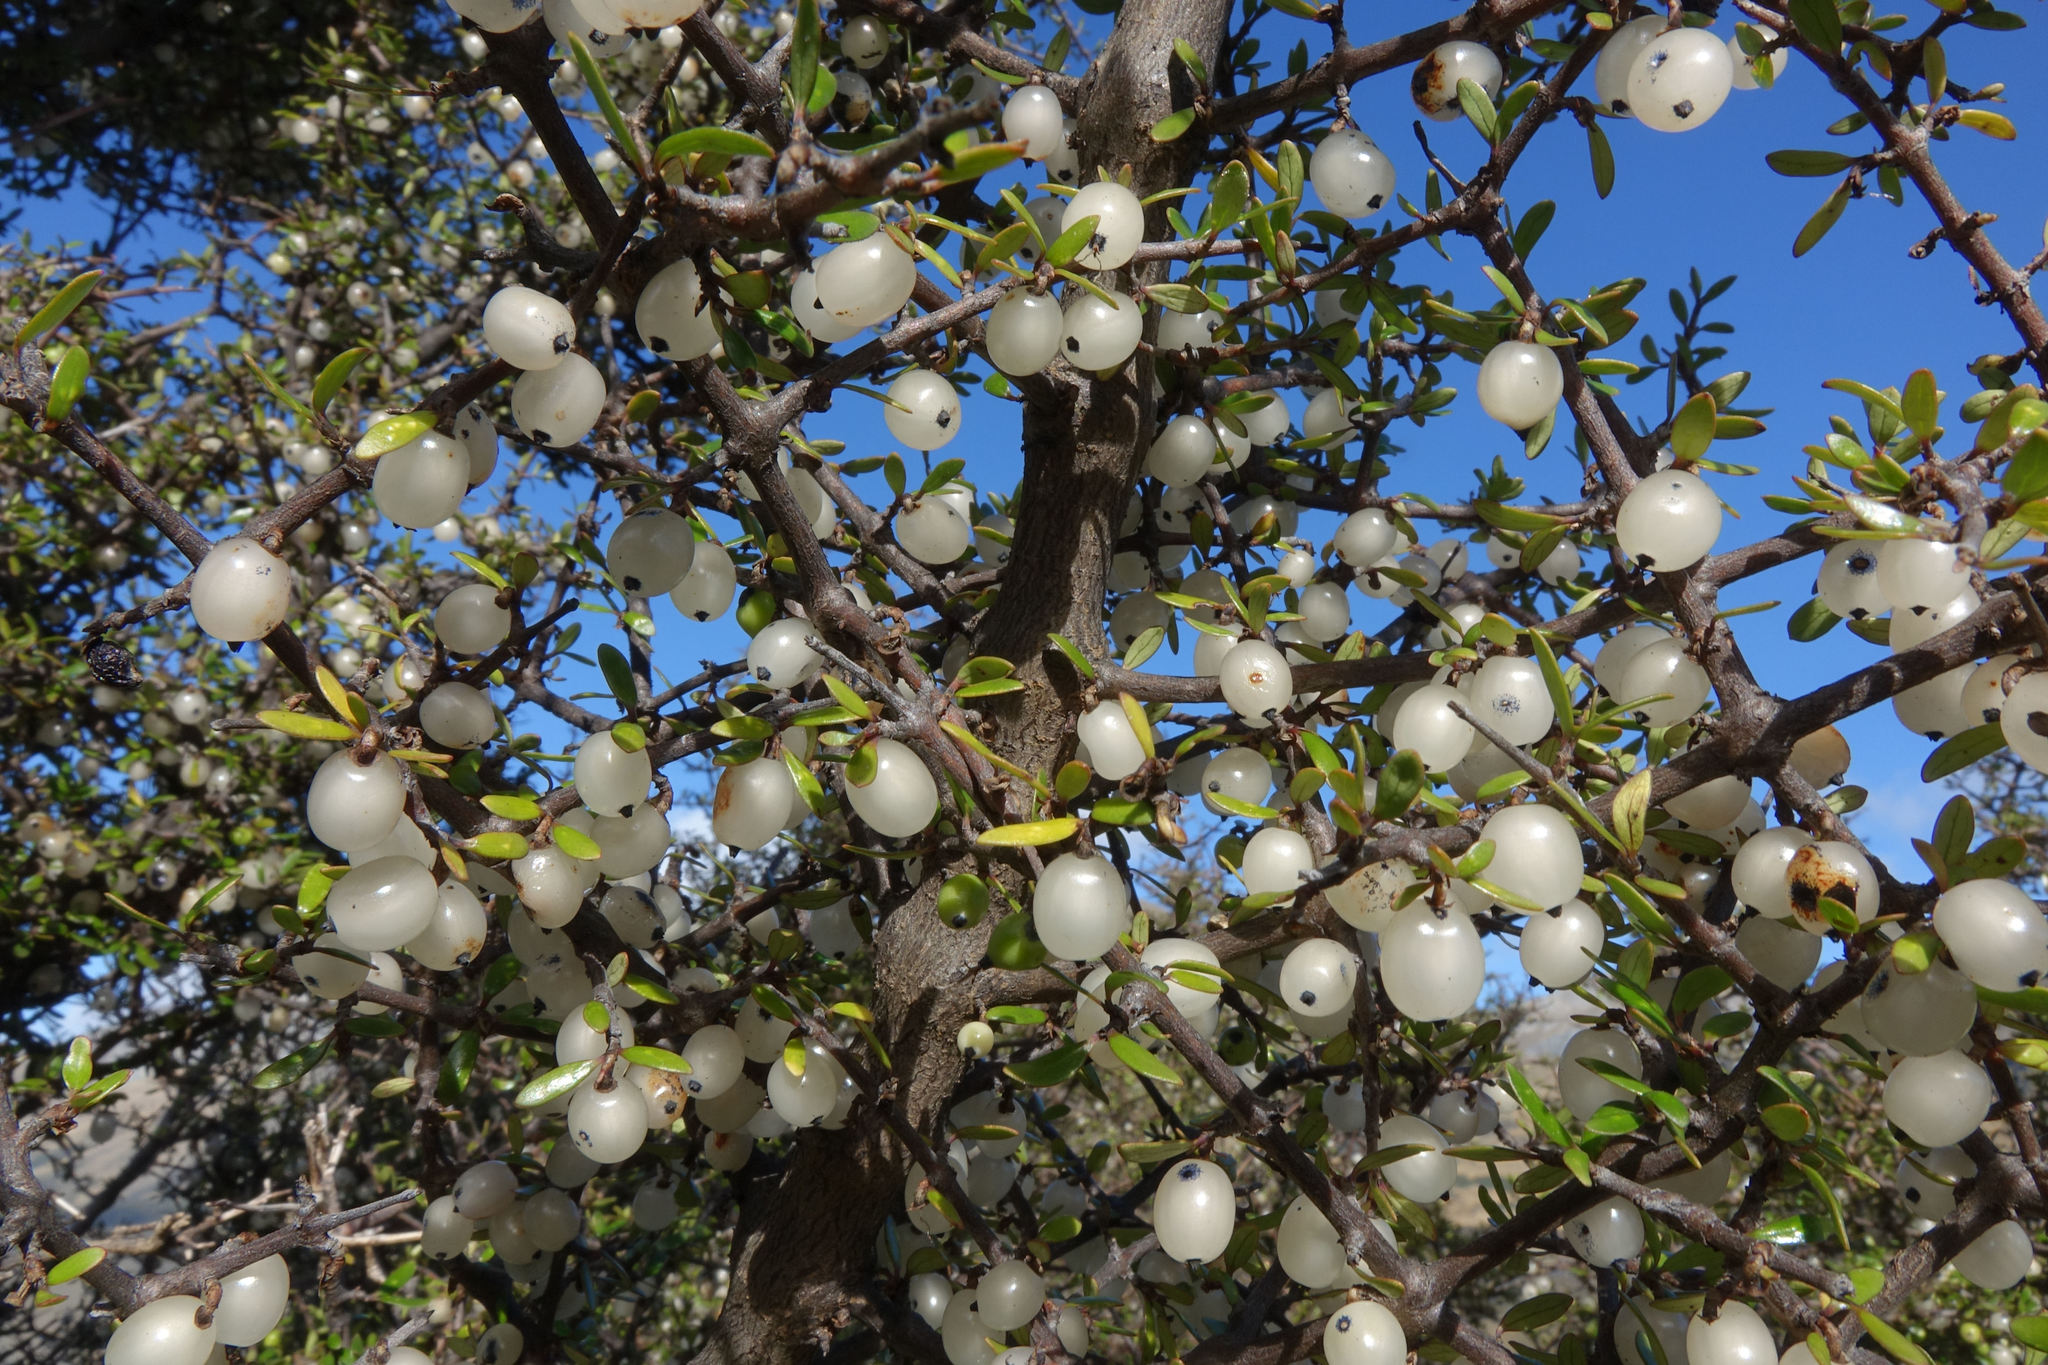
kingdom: Plantae
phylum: Tracheophyta
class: Magnoliopsida
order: Gentianales
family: Rubiaceae
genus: Coprosma
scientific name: Coprosma propinqua
